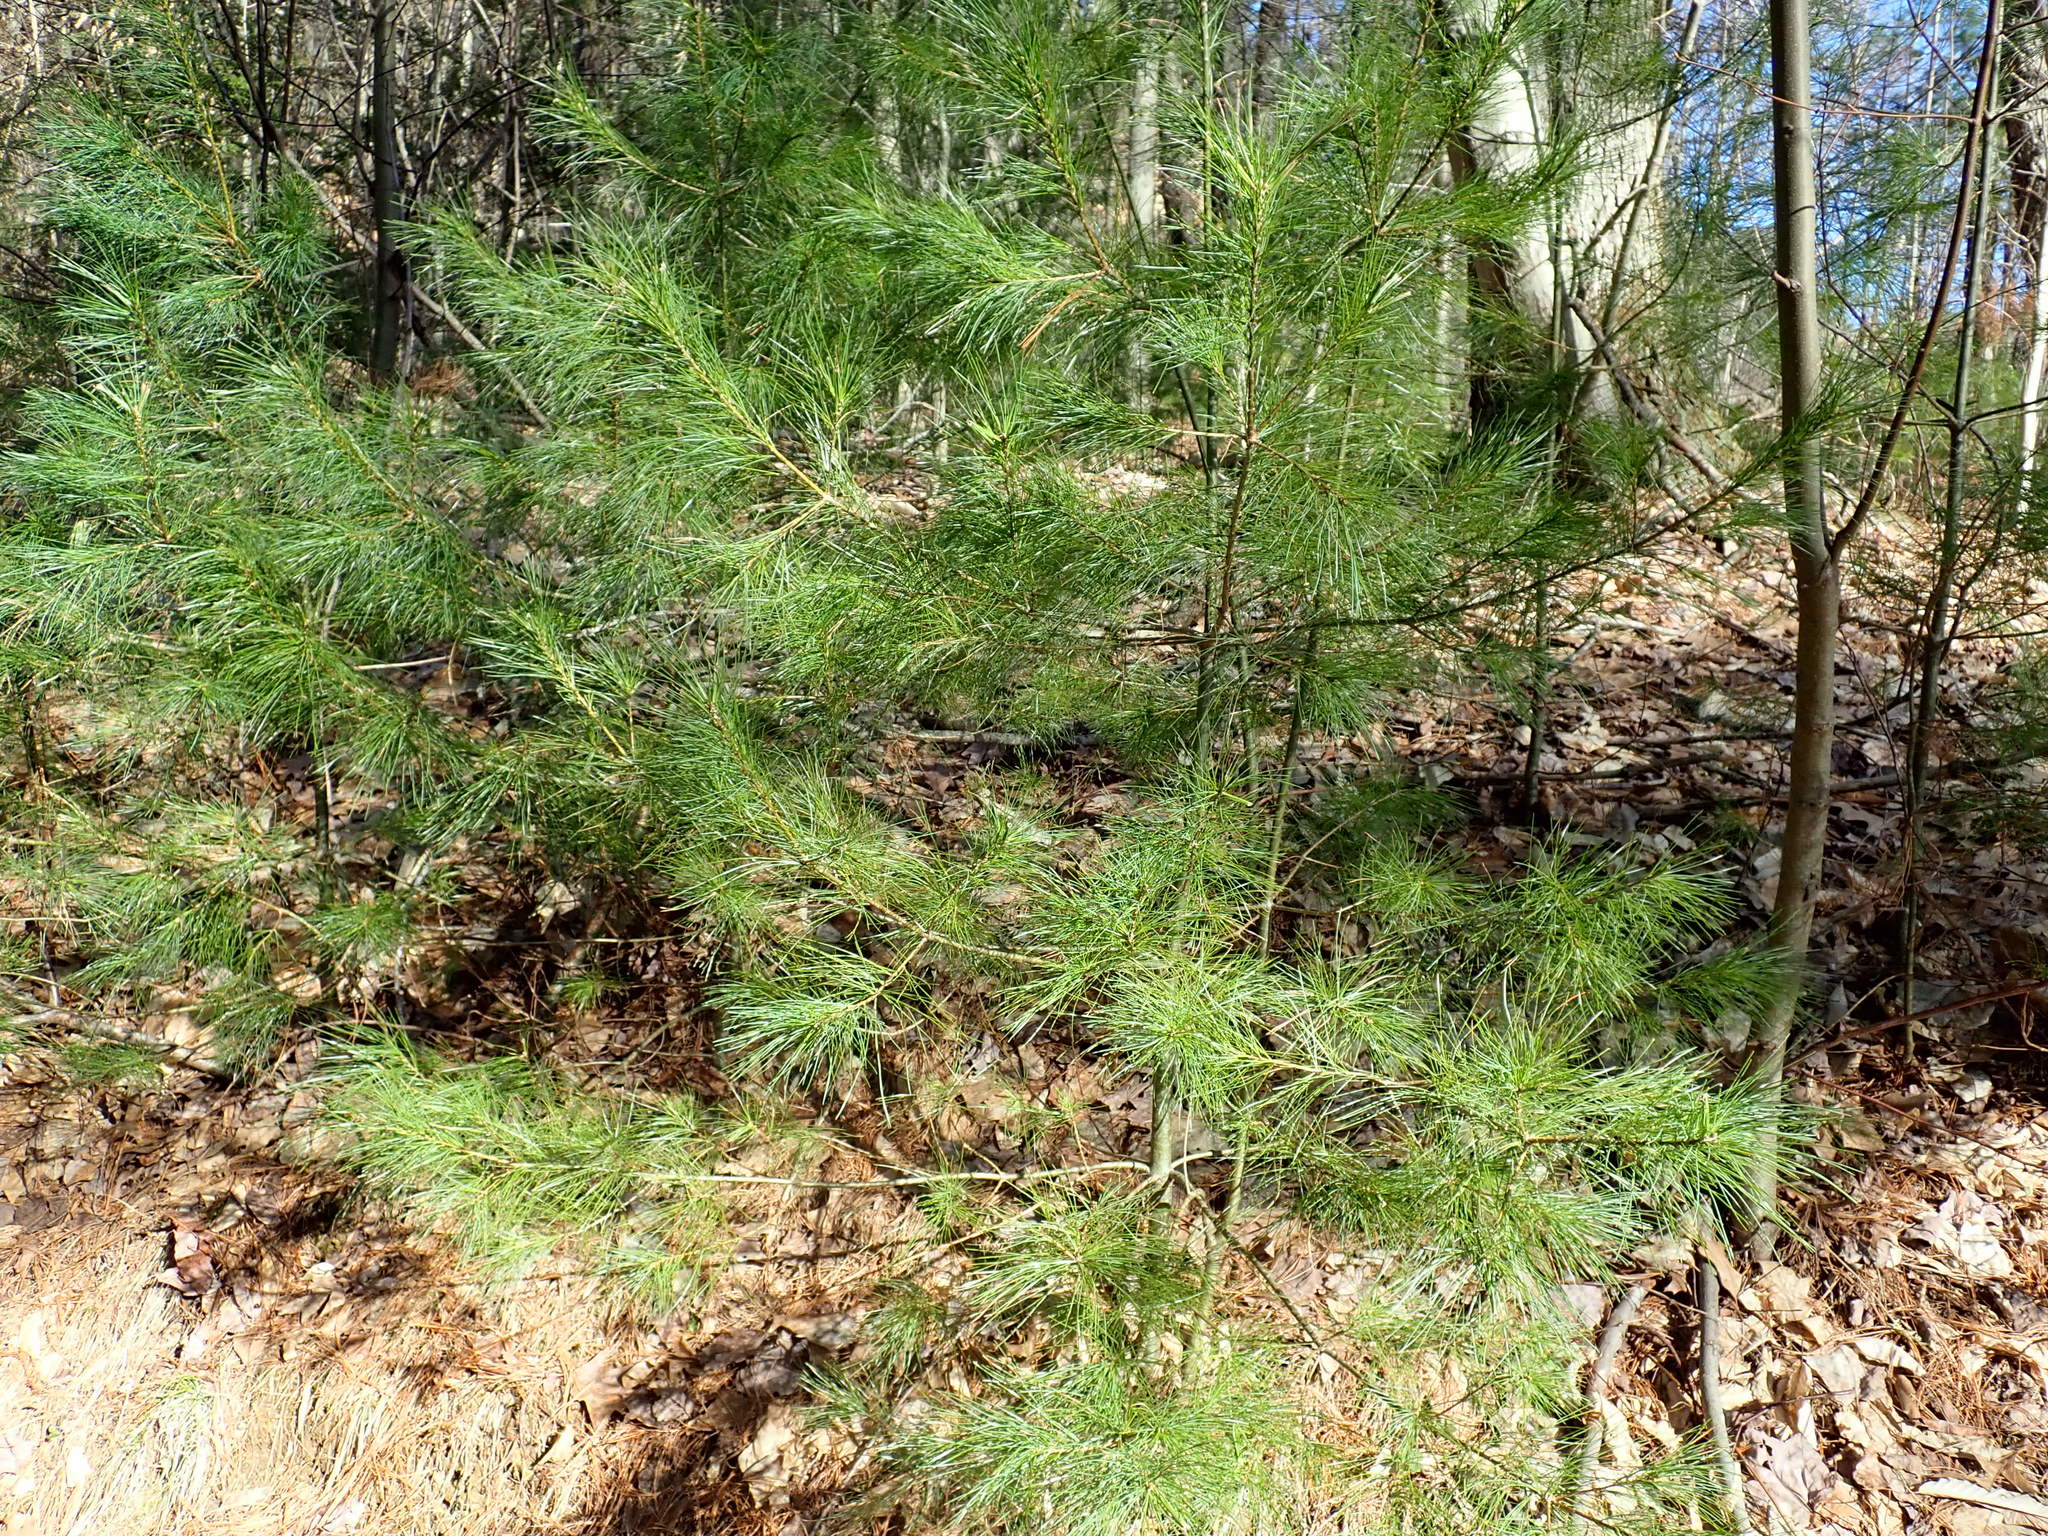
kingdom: Plantae
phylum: Tracheophyta
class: Pinopsida
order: Pinales
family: Pinaceae
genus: Pinus
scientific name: Pinus strobus
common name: Weymouth pine
